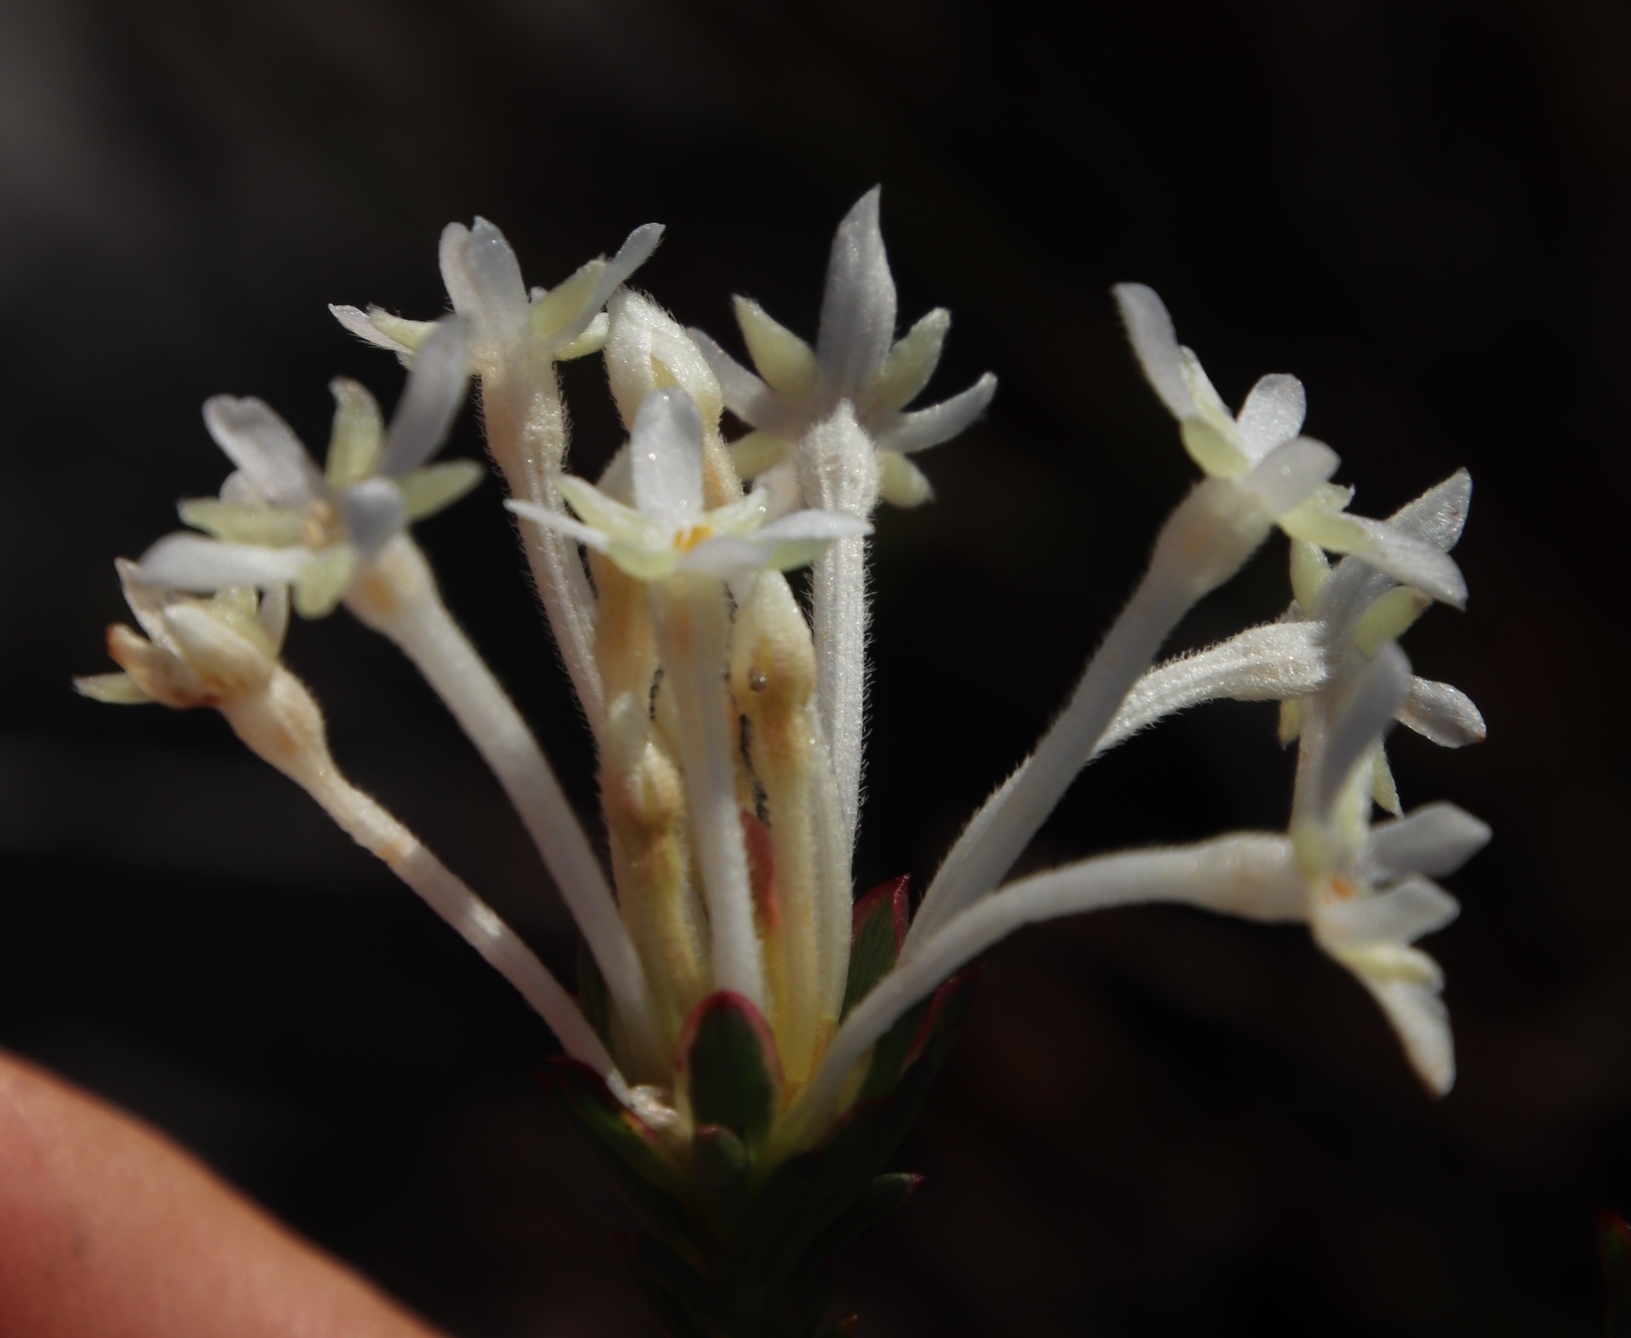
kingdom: Plantae
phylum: Tracheophyta
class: Magnoliopsida
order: Malvales
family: Thymelaeaceae
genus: Gnidia
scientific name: Gnidia pinifolia
